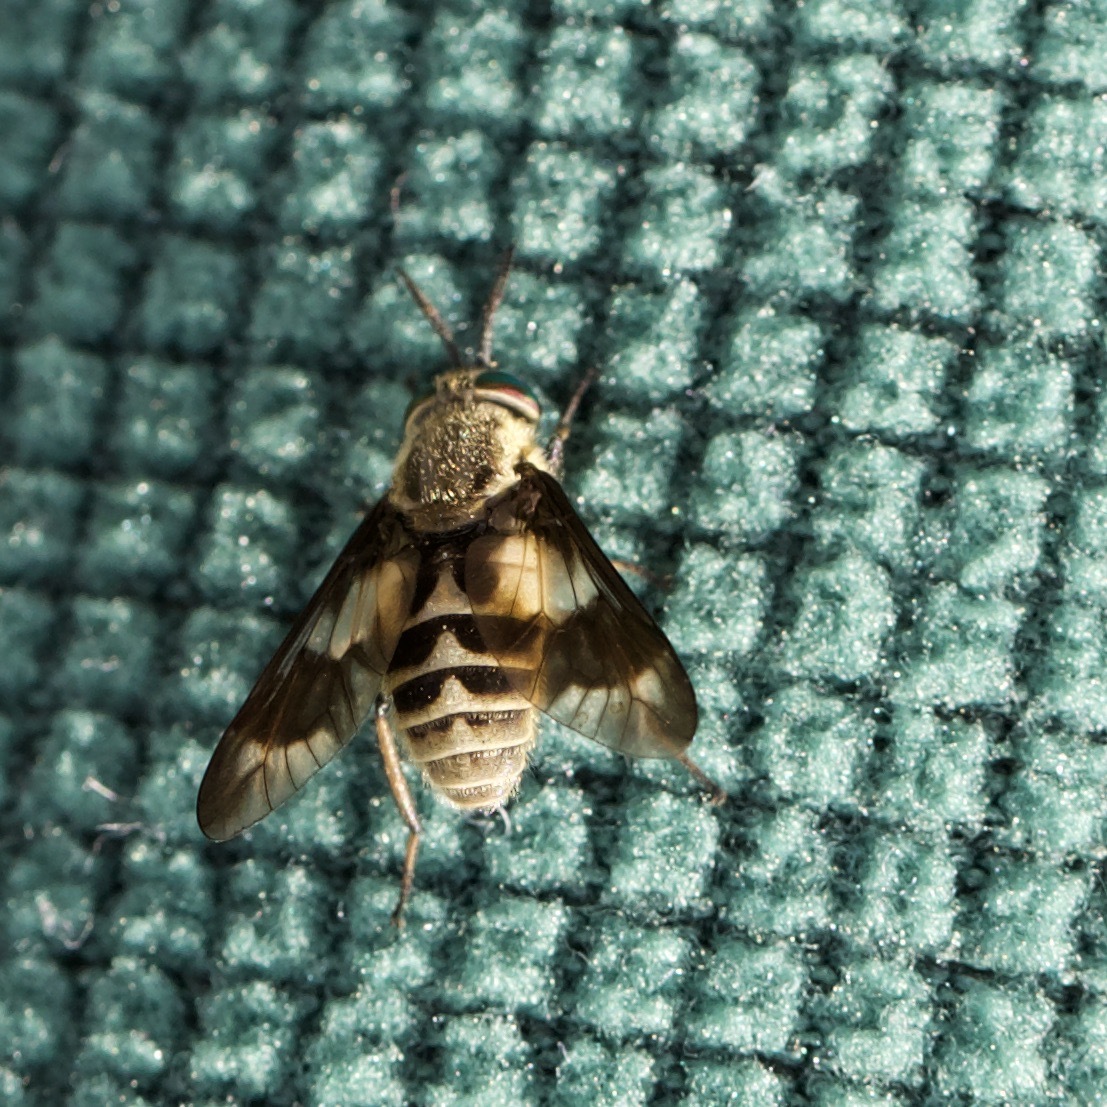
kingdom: Animalia
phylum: Arthropoda
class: Insecta
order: Diptera
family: Tabanidae
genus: Chrysops
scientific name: Chrysops relictus
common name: Twin-lobed deerfly
